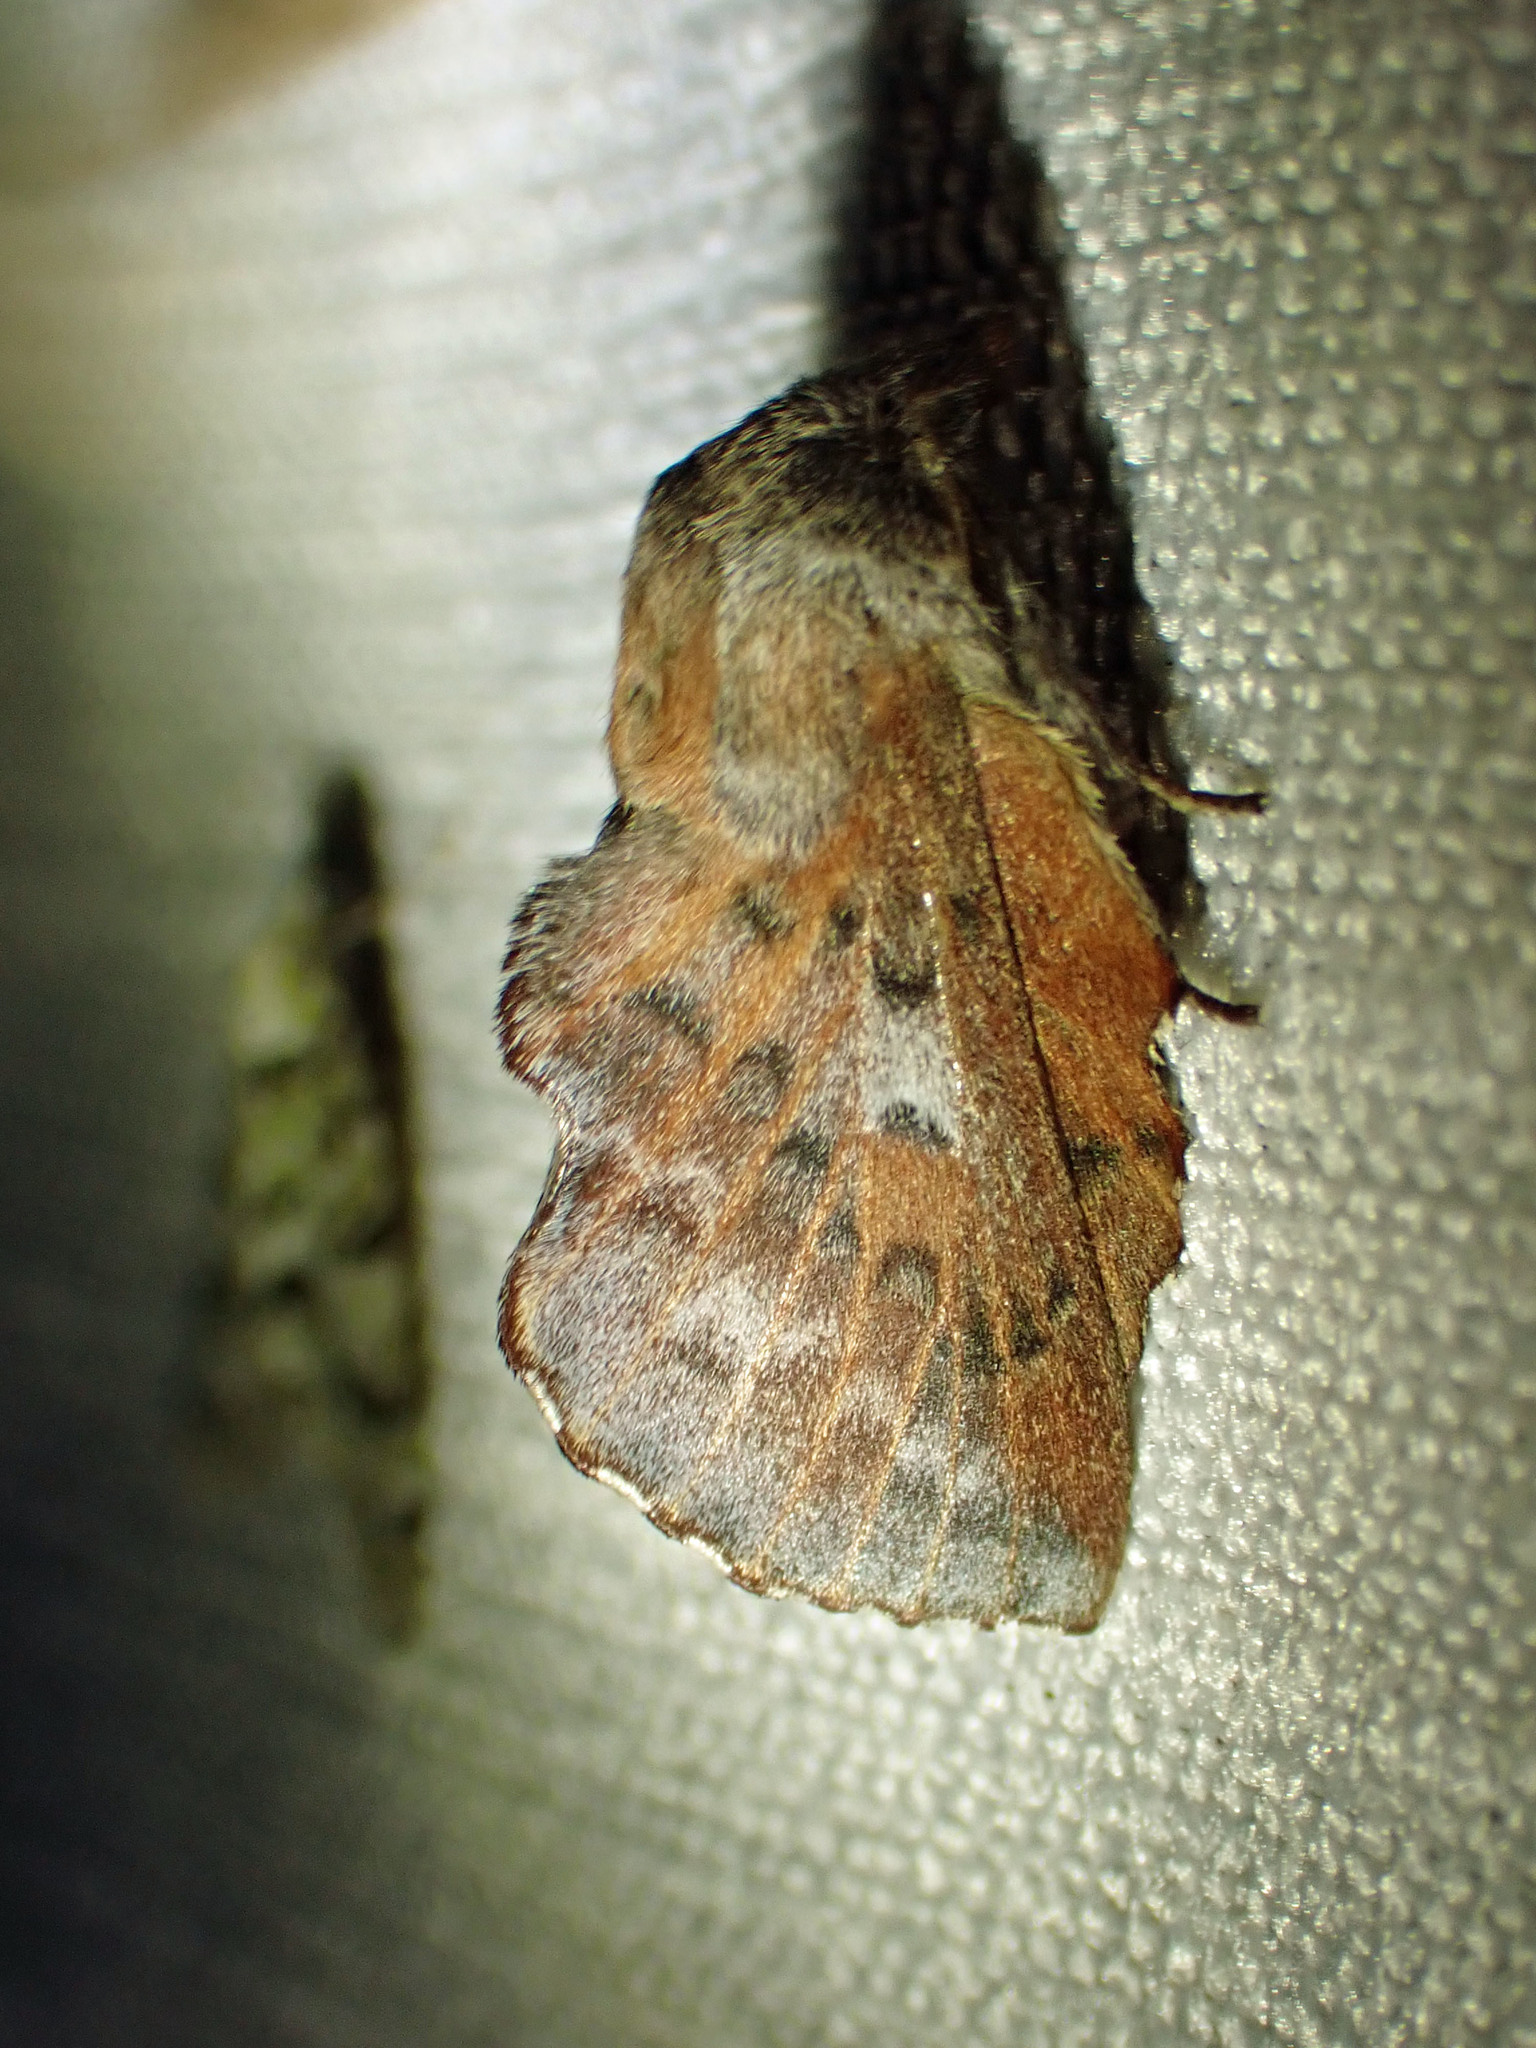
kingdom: Animalia
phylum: Arthropoda
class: Insecta
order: Lepidoptera
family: Lasiocampidae
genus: Phyllodesma
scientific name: Phyllodesma americana
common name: American lappet moth
